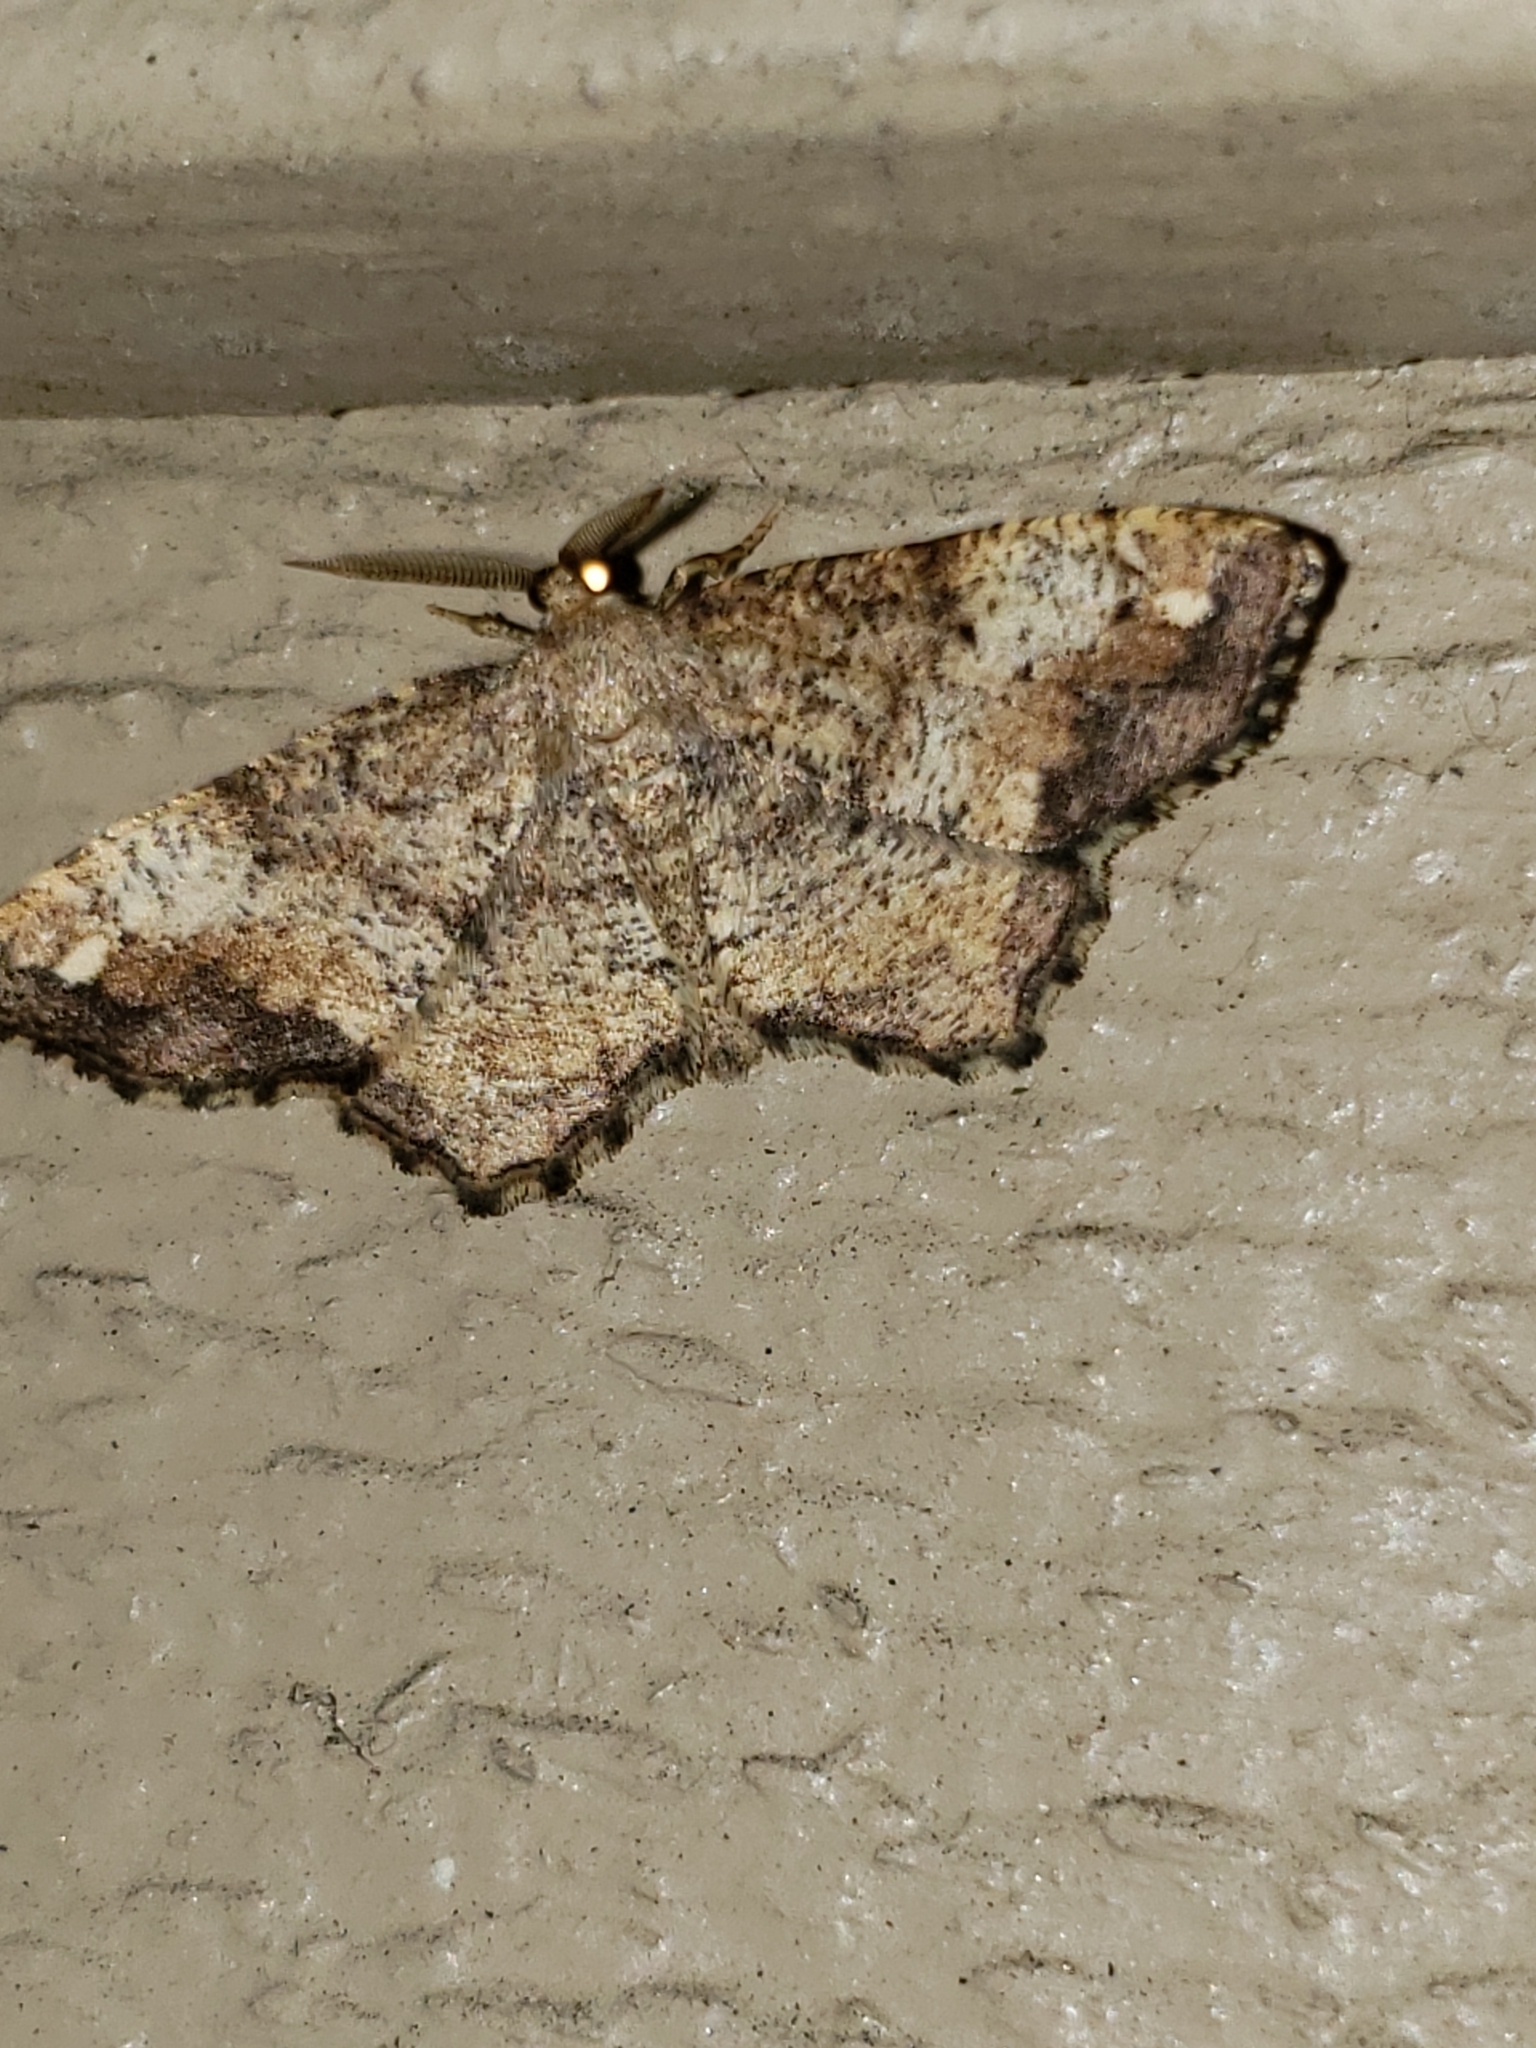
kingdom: Animalia
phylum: Arthropoda
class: Insecta
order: Lepidoptera
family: Geometridae
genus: Hypagyrtis
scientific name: Hypagyrtis unipunctata
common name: One-spotted variant
